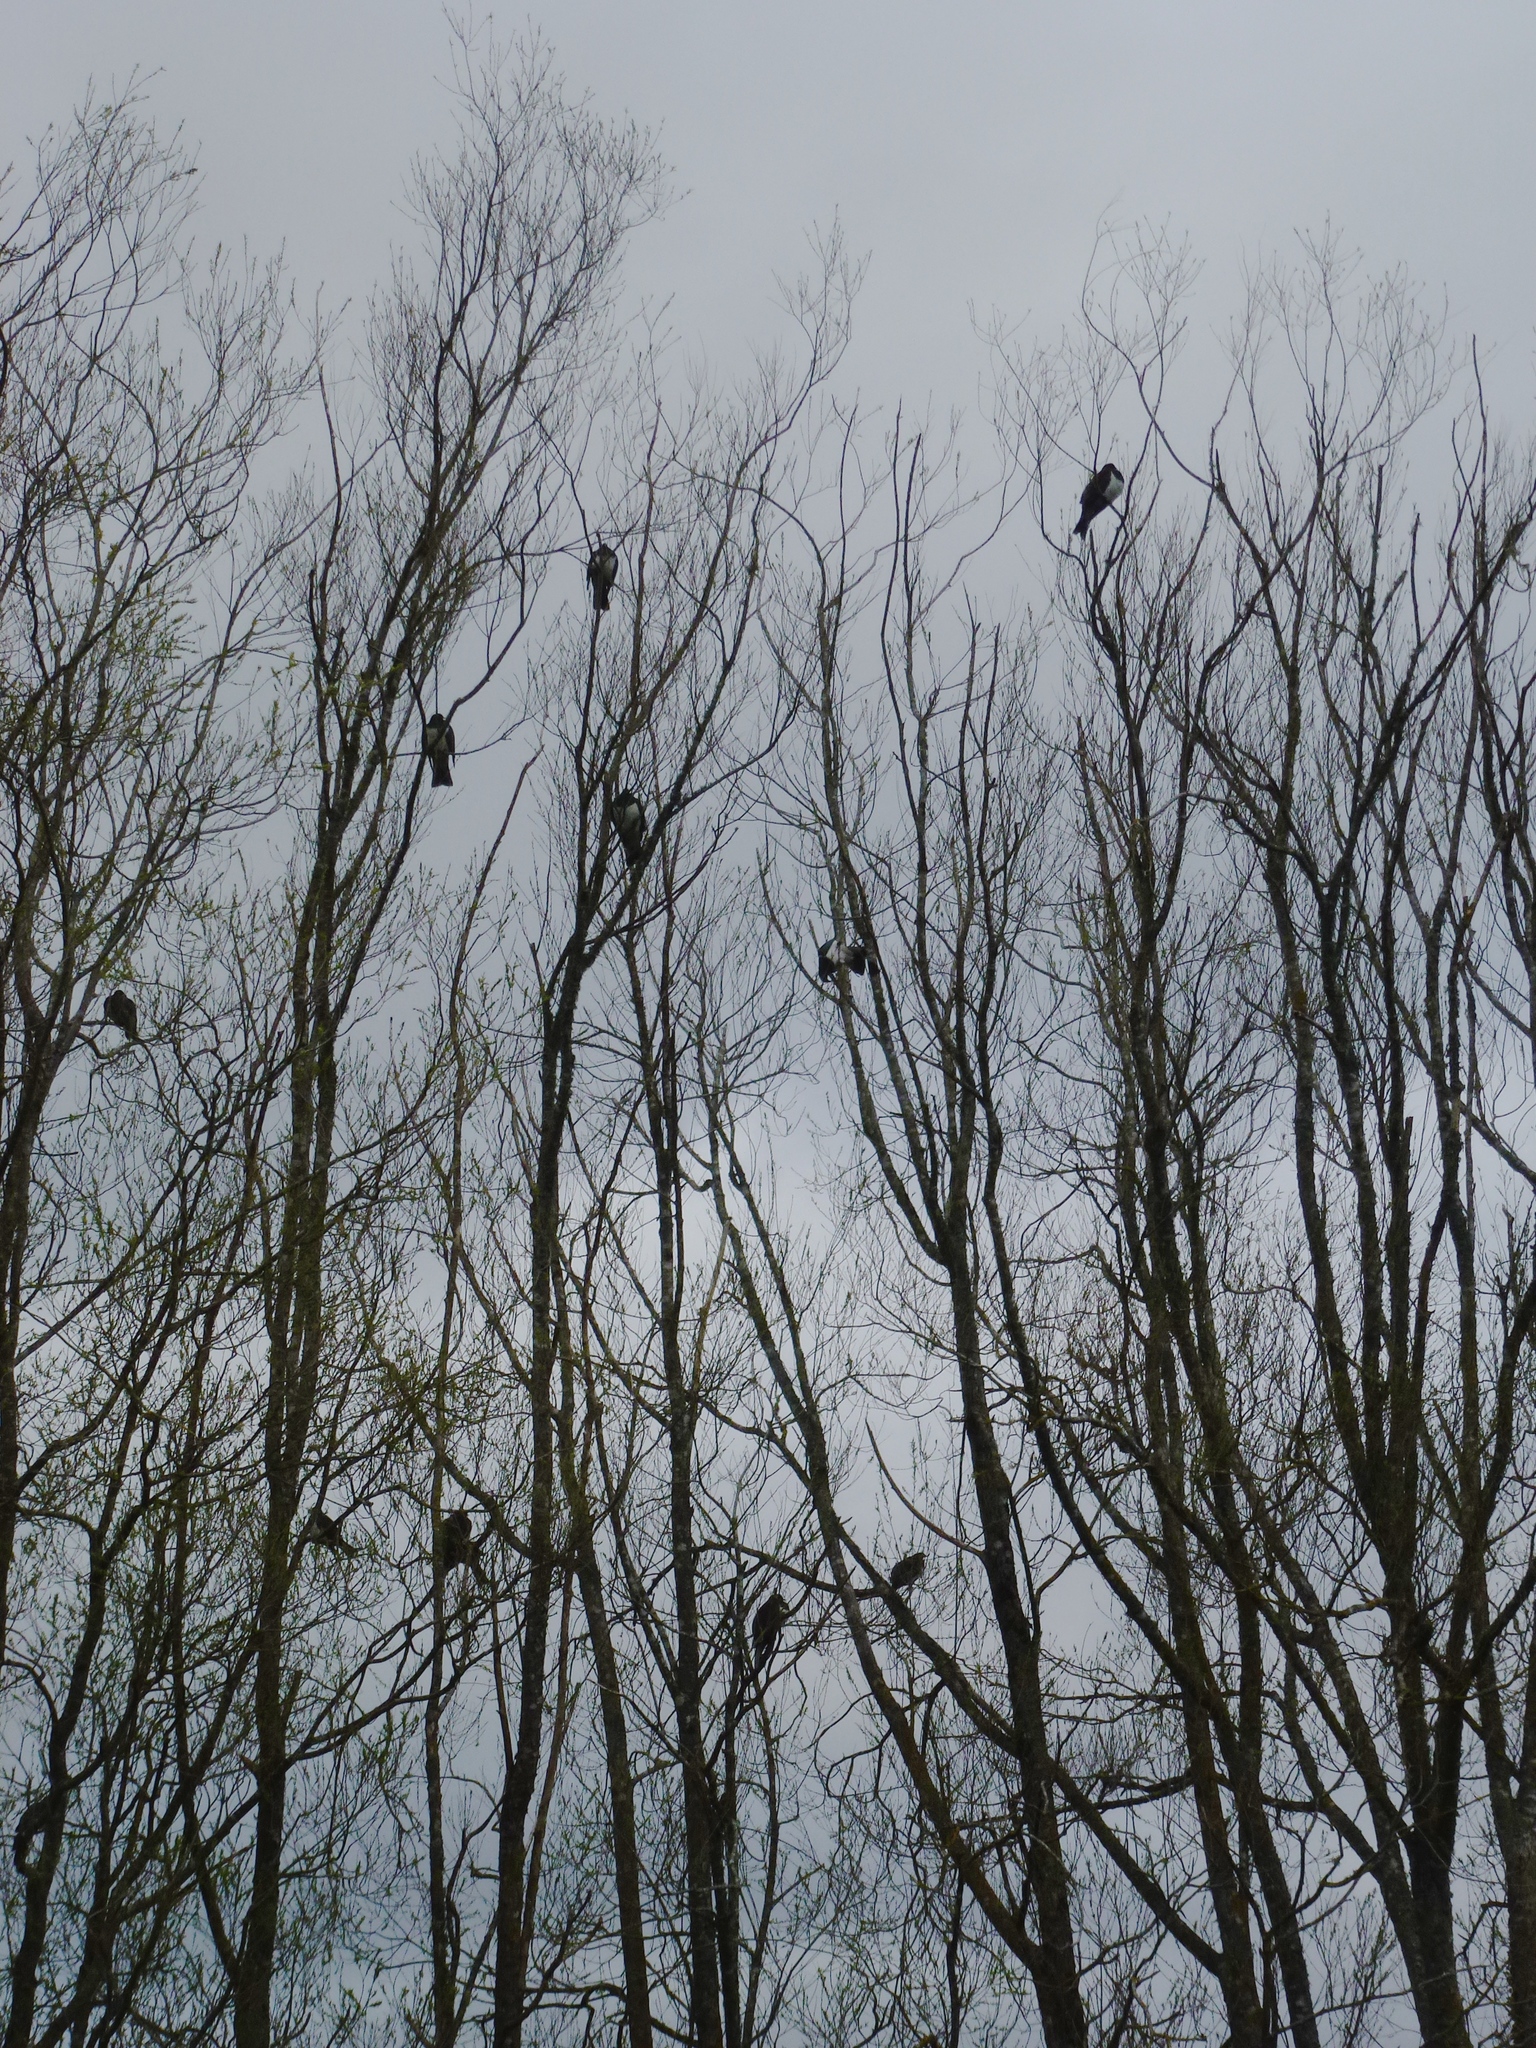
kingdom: Animalia
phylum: Chordata
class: Aves
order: Columbiformes
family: Columbidae
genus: Hemiphaga
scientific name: Hemiphaga novaeseelandiae
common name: New zealand pigeon
